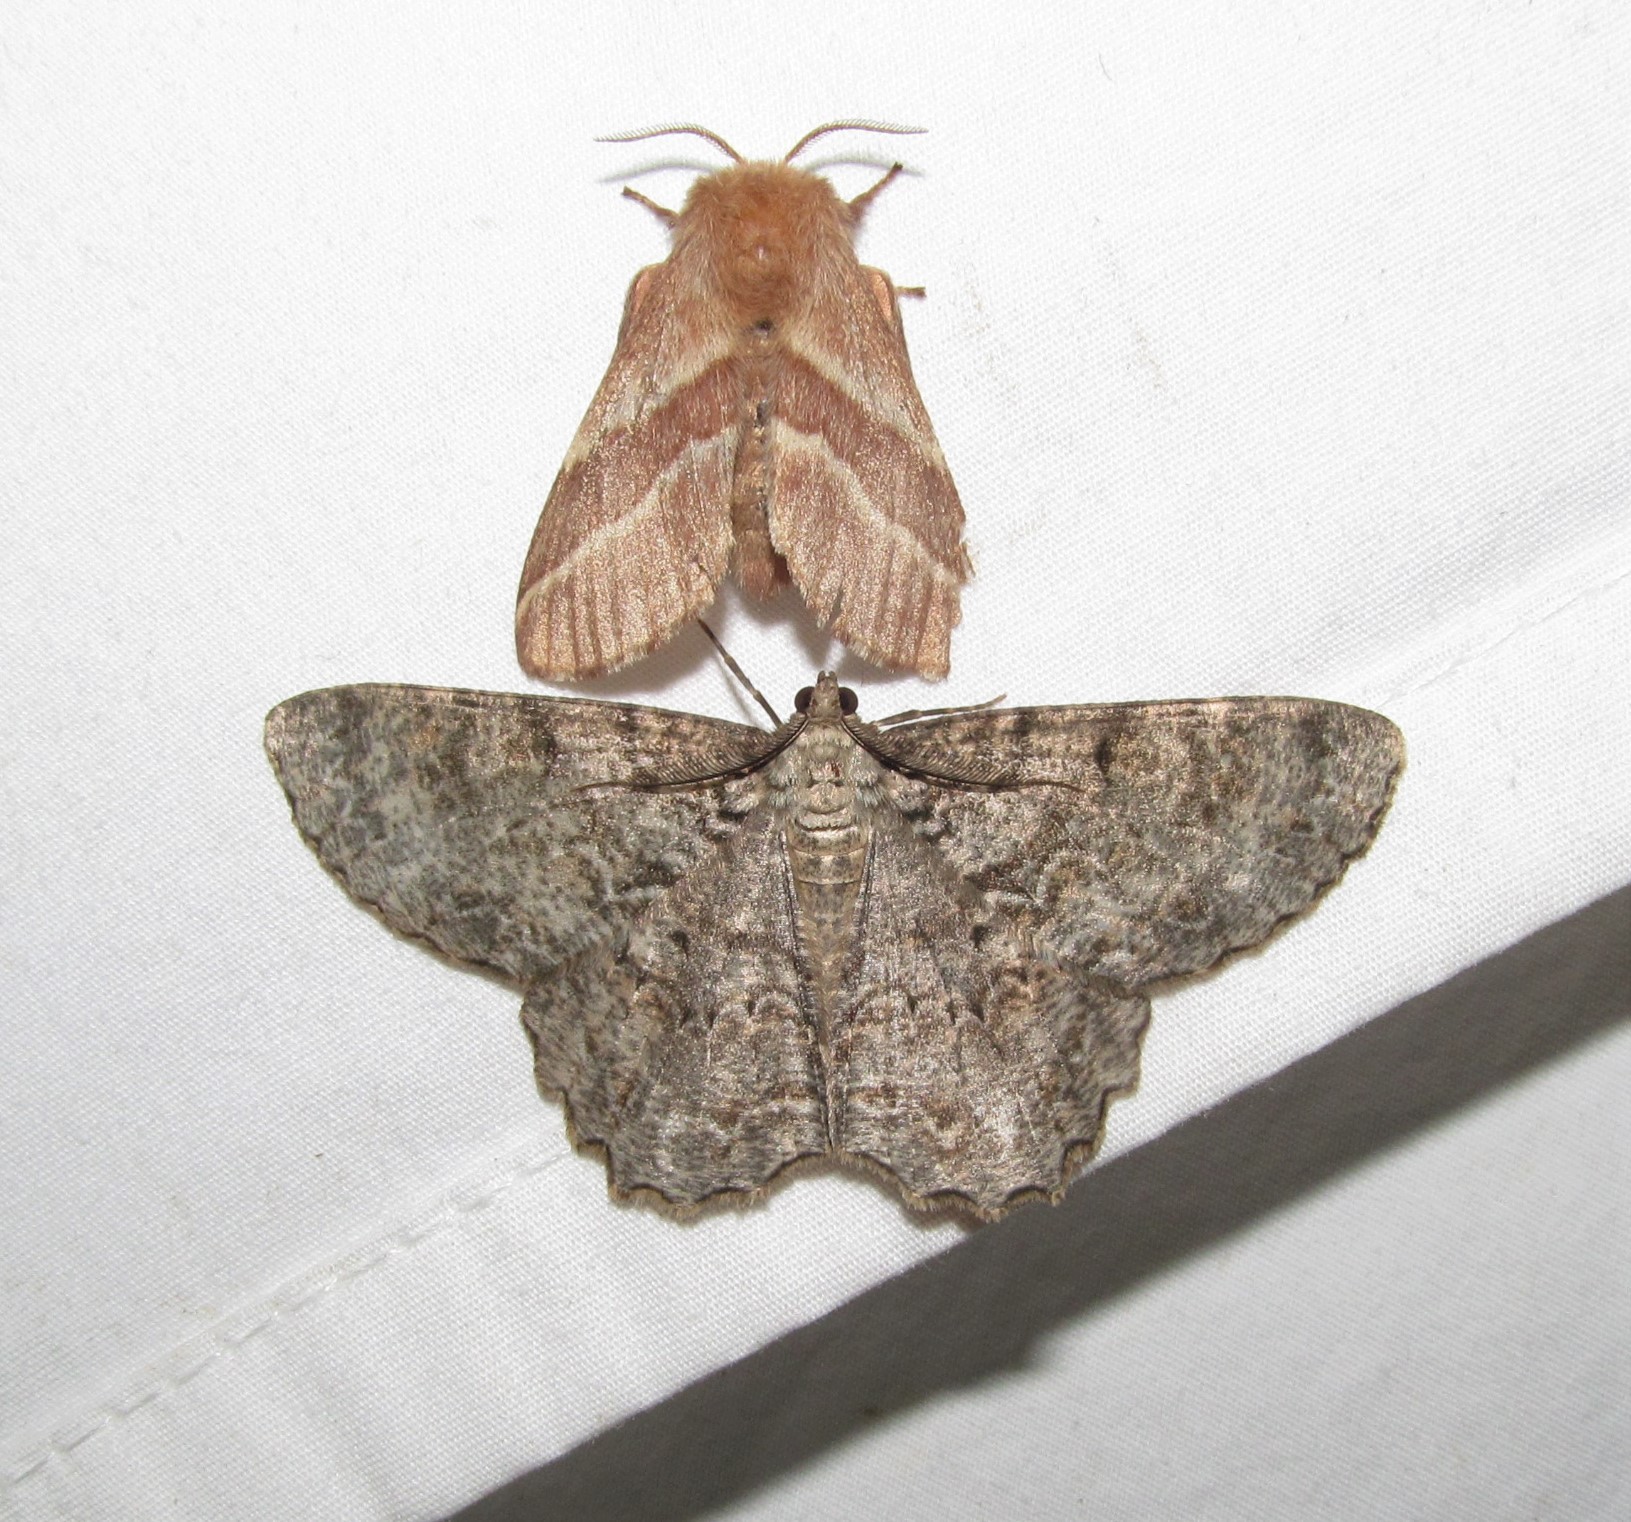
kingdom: Animalia
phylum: Arthropoda
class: Insecta
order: Lepidoptera
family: Lasiocampidae
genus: Malacosoma
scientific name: Malacosoma americana
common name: Eastern tent caterpillar moth
